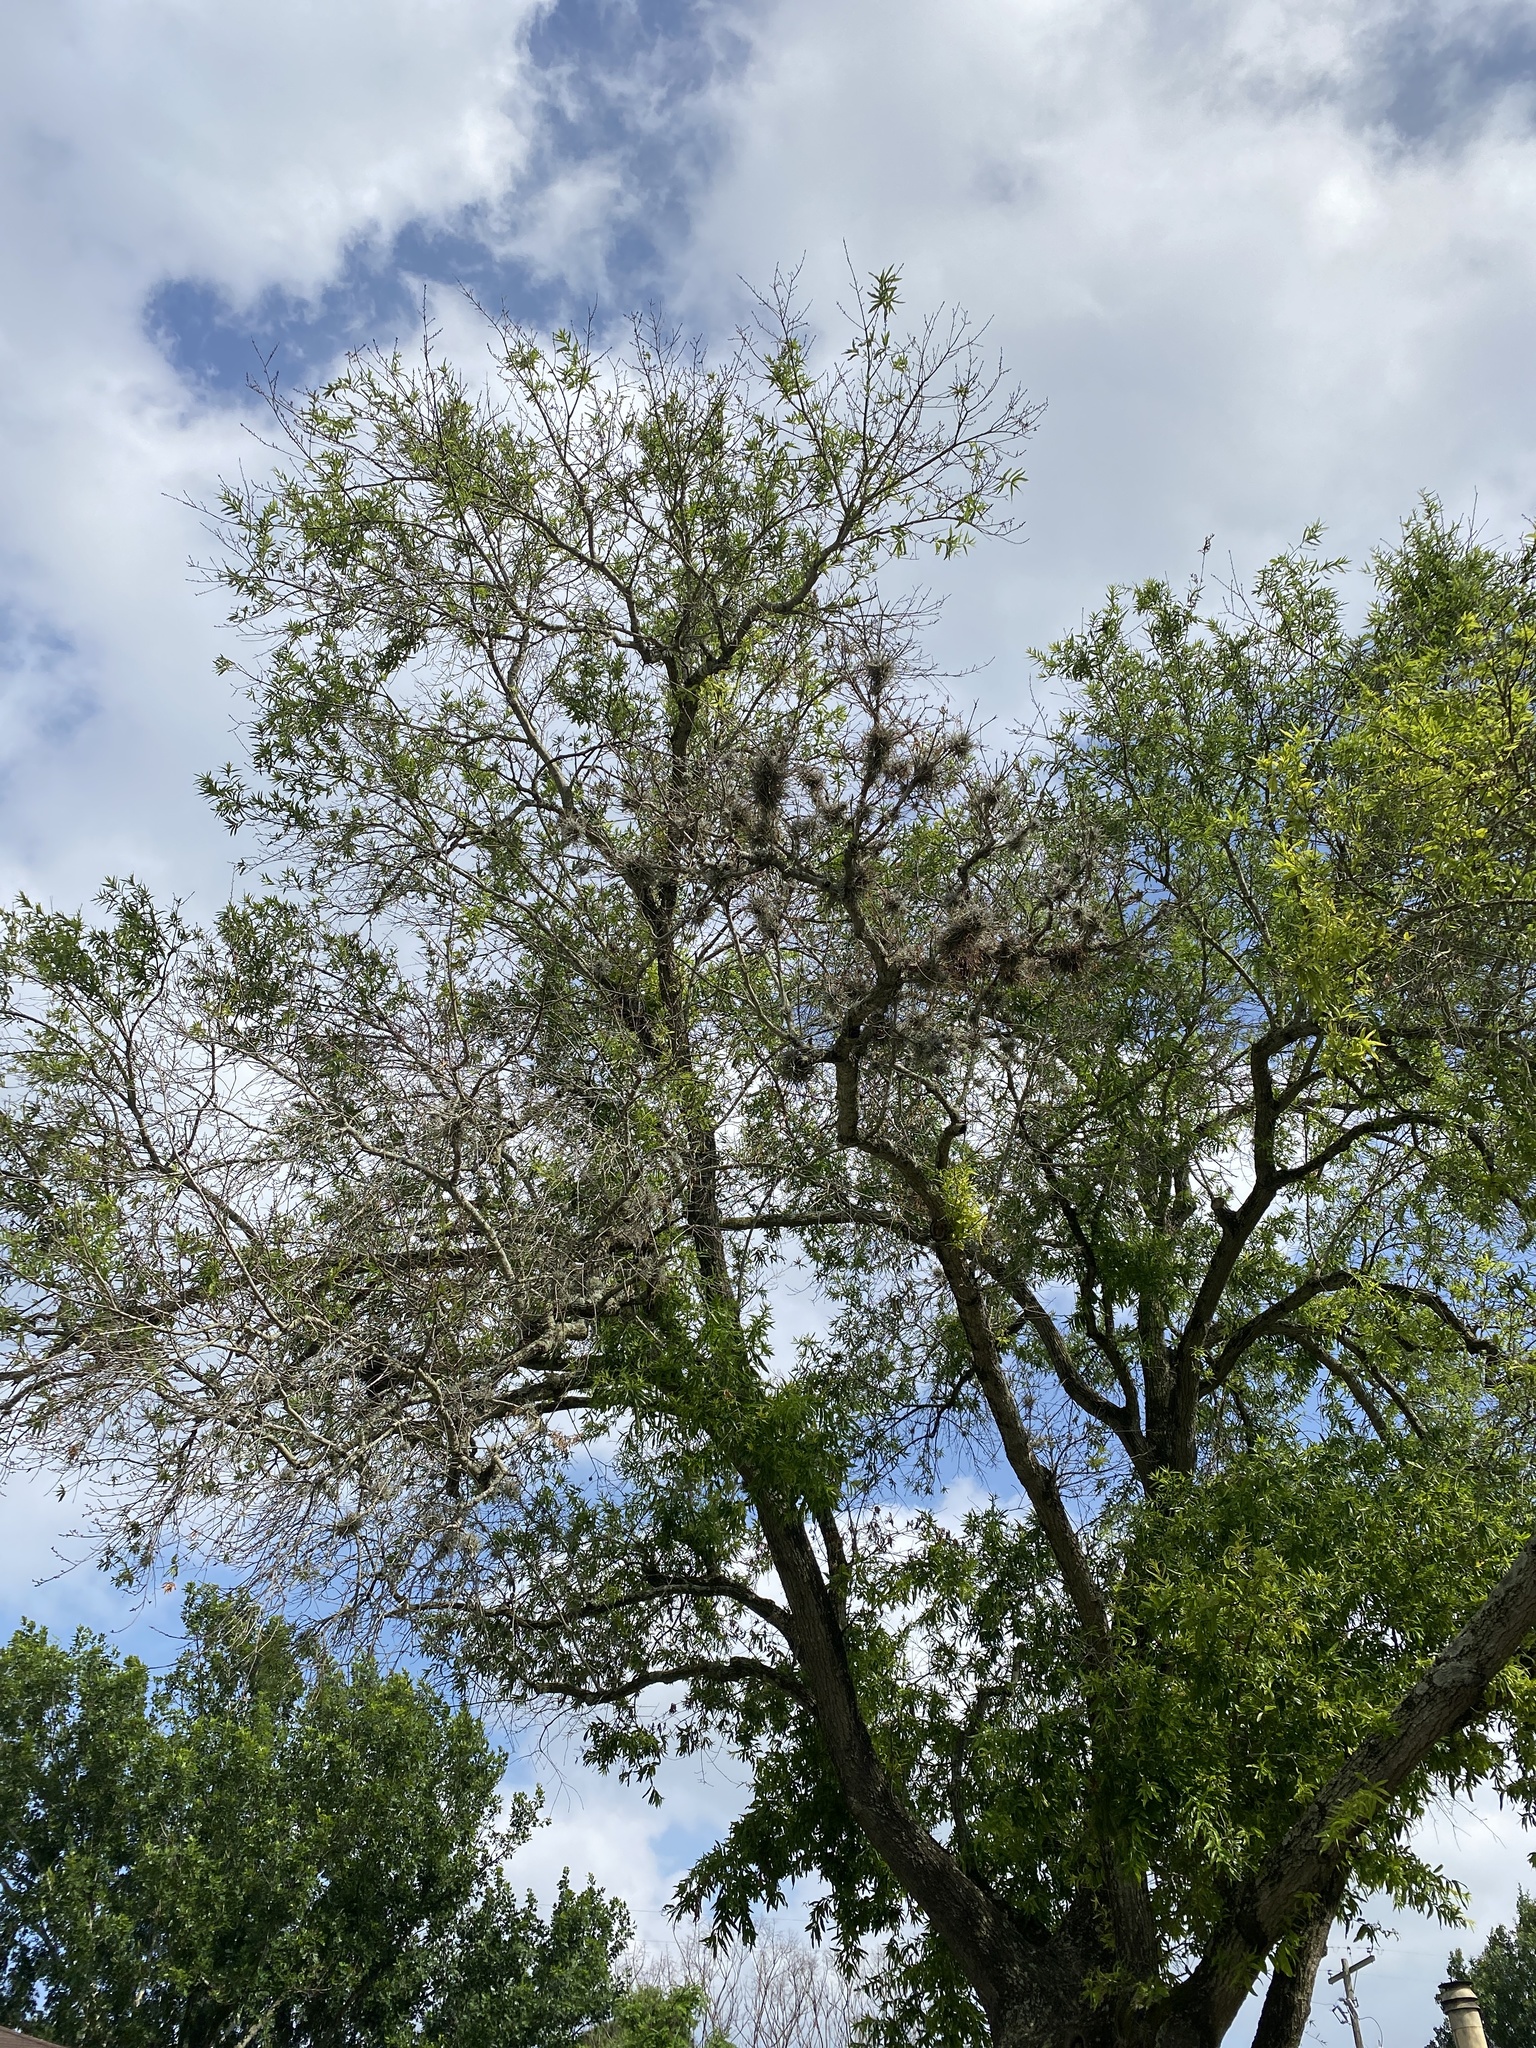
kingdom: Plantae
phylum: Tracheophyta
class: Liliopsida
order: Poales
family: Bromeliaceae
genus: Tillandsia
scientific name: Tillandsia recurvata
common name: Small ballmoss
